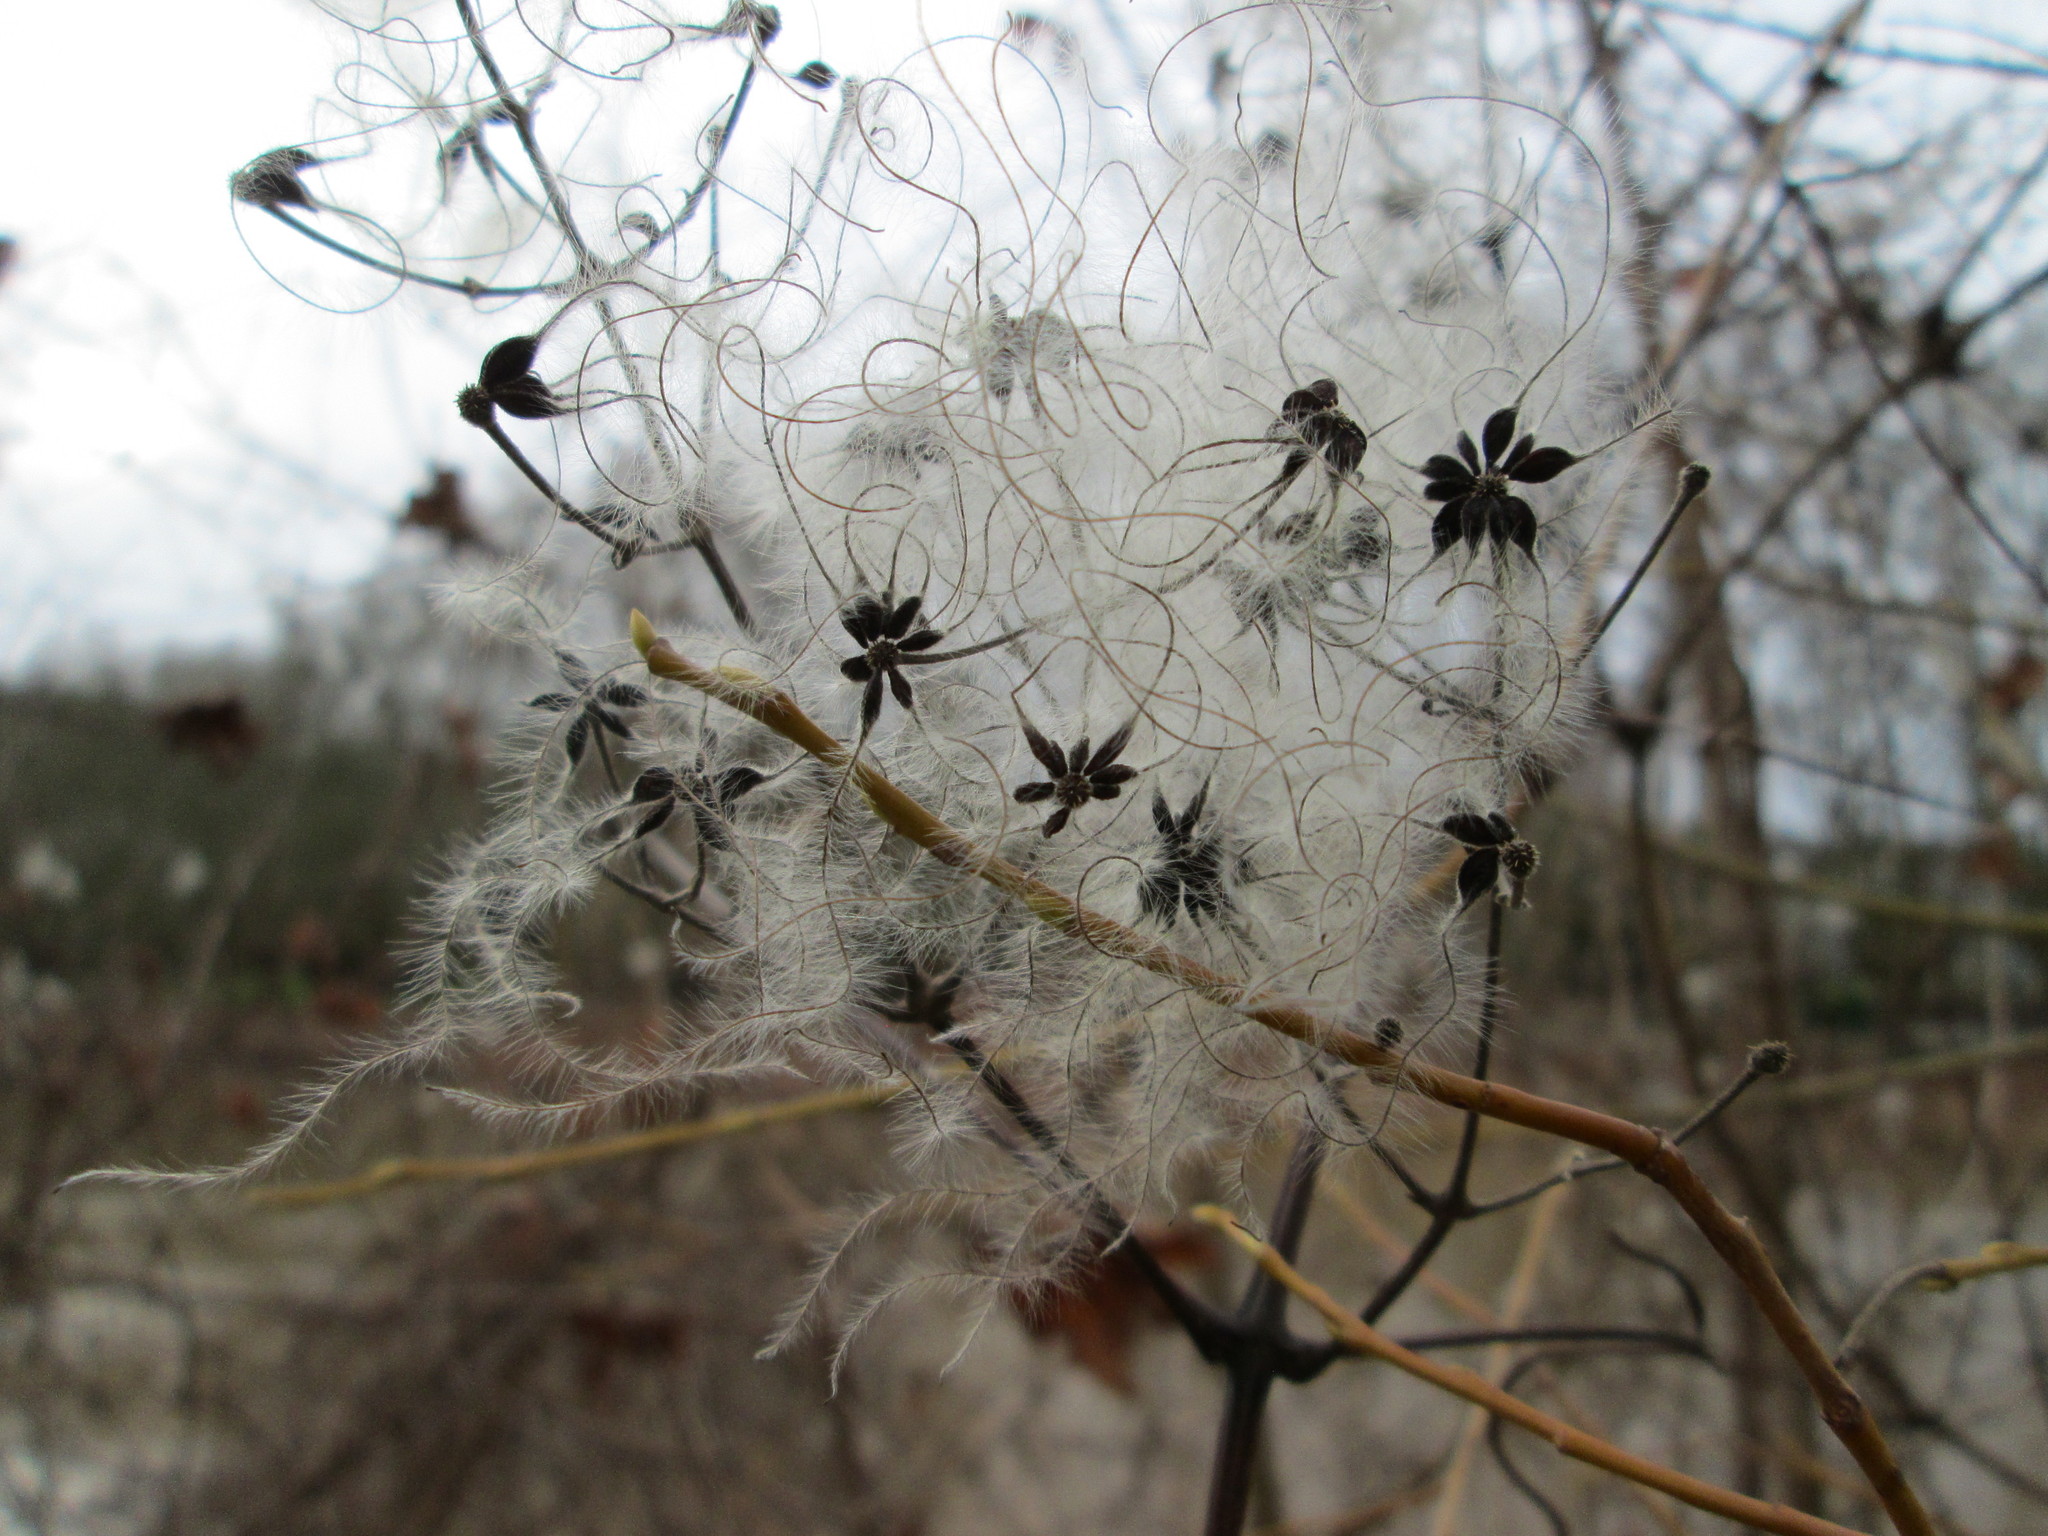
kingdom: Plantae
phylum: Tracheophyta
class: Magnoliopsida
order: Ranunculales
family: Ranunculaceae
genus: Clematis
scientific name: Clematis vitalba
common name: Evergreen clematis
